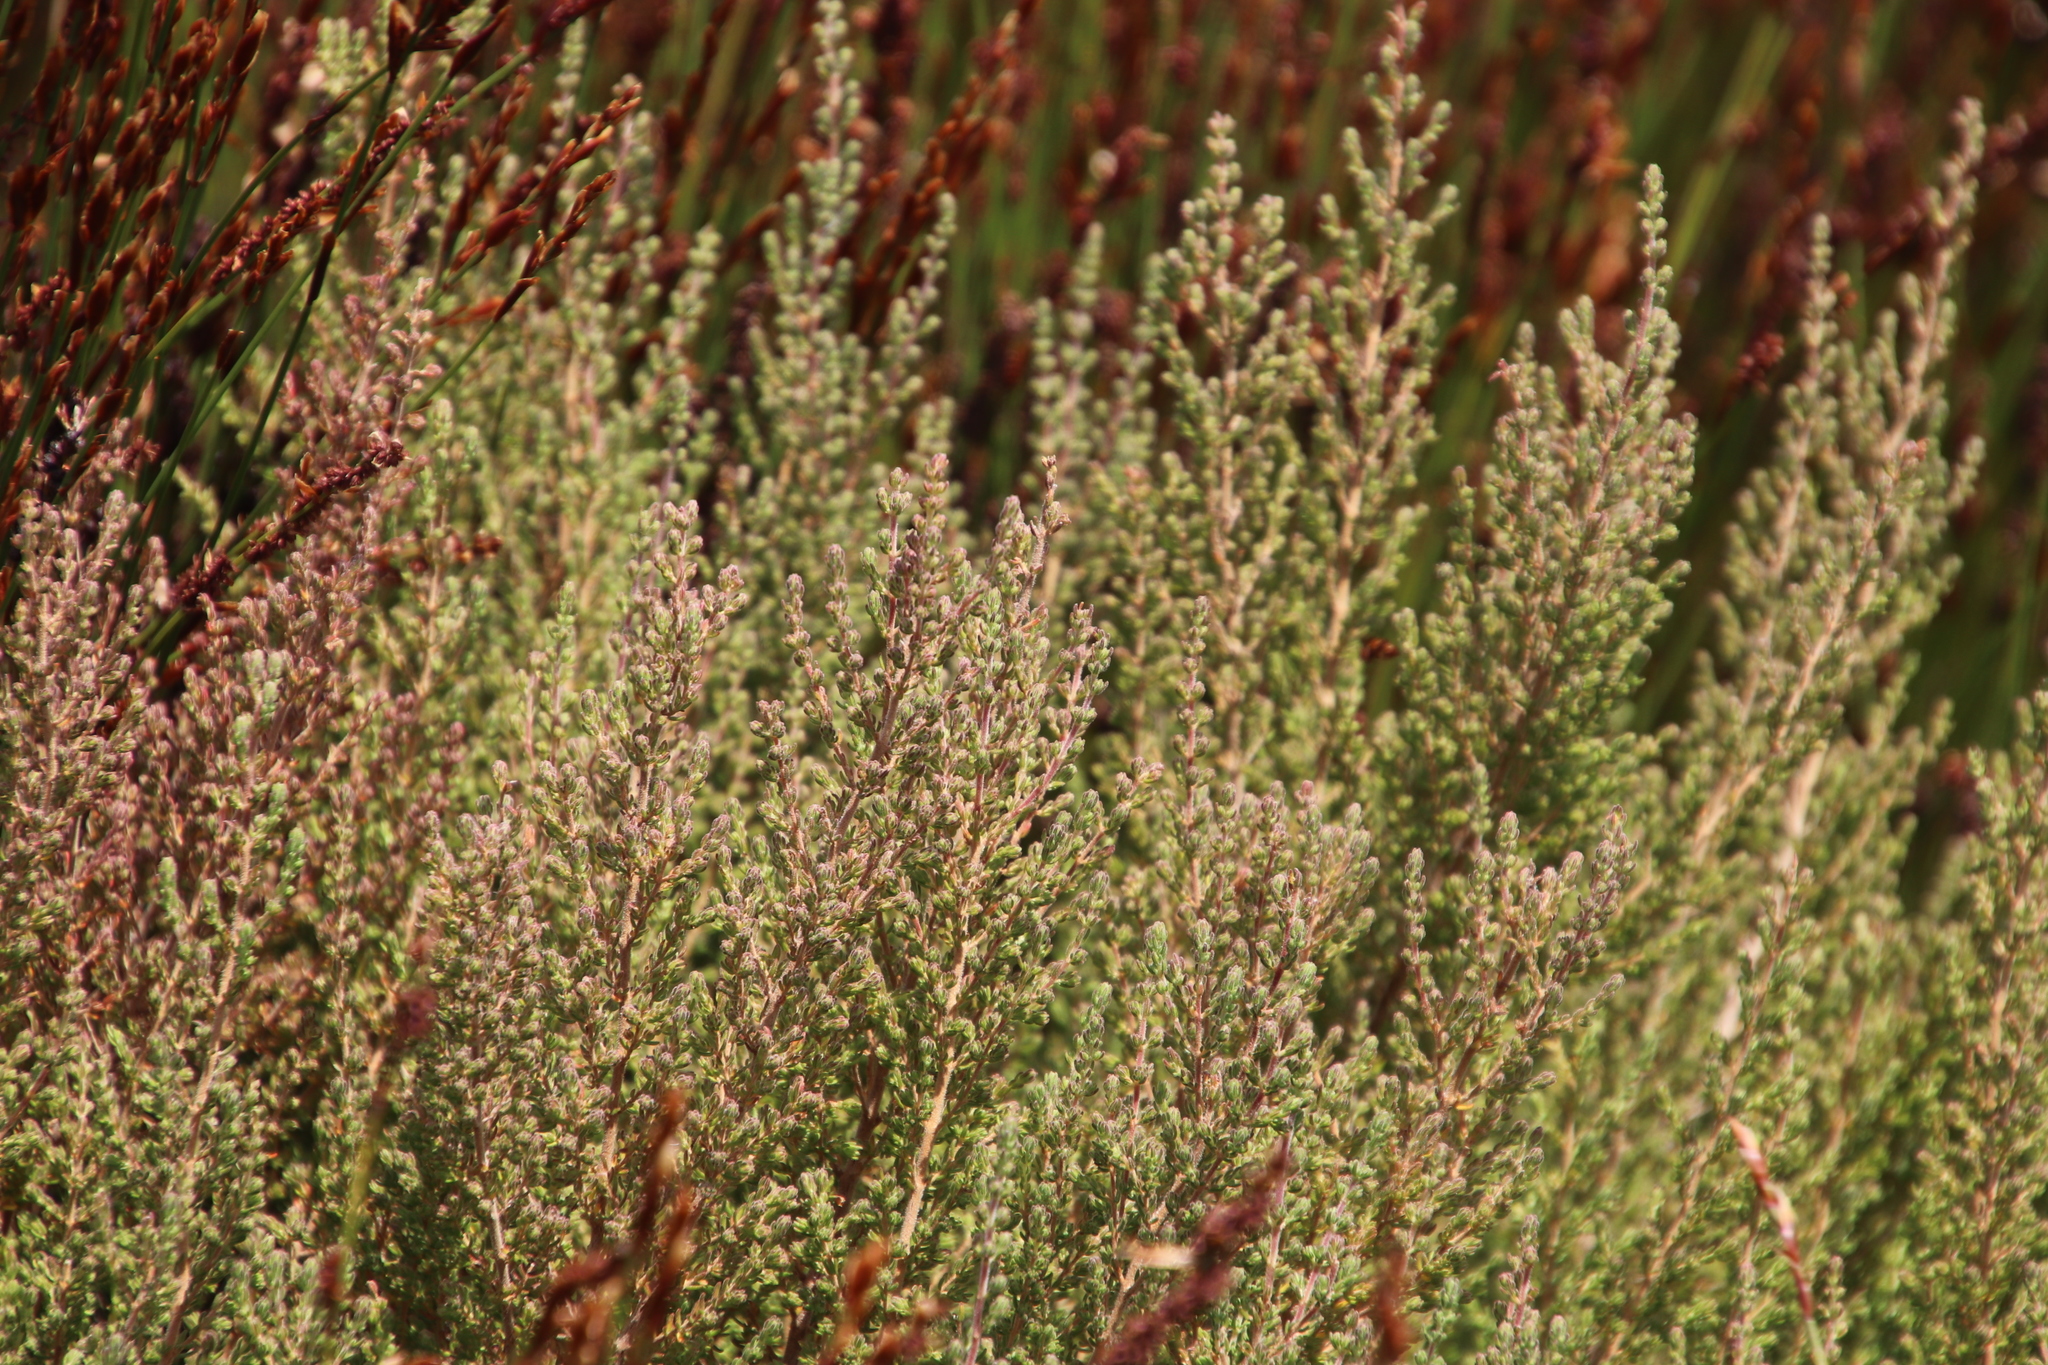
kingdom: Plantae
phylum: Tracheophyta
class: Magnoliopsida
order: Cornales
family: Grubbiaceae
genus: Grubbia
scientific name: Grubbia rosmarinifolia
